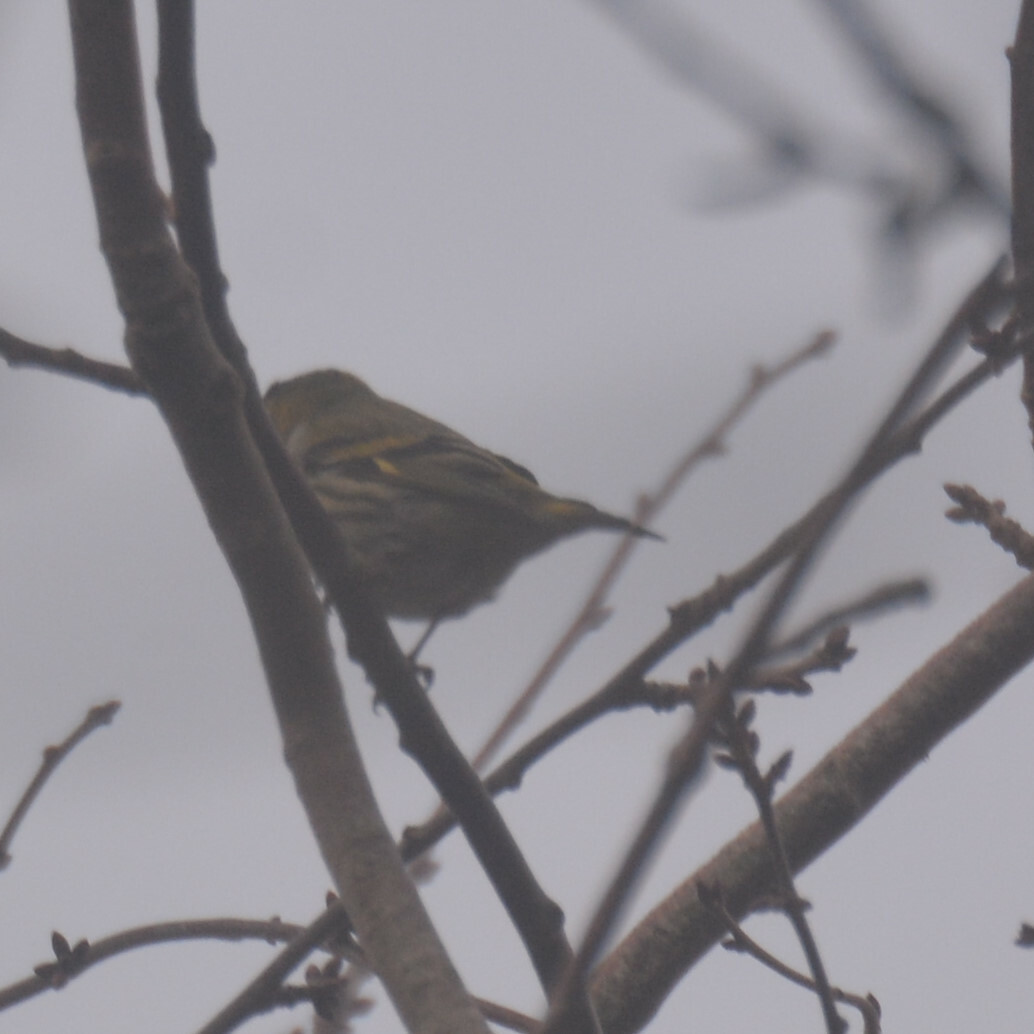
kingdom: Animalia
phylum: Chordata
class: Aves
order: Passeriformes
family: Fringillidae
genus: Spinus
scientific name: Spinus spinus
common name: Eurasian siskin
